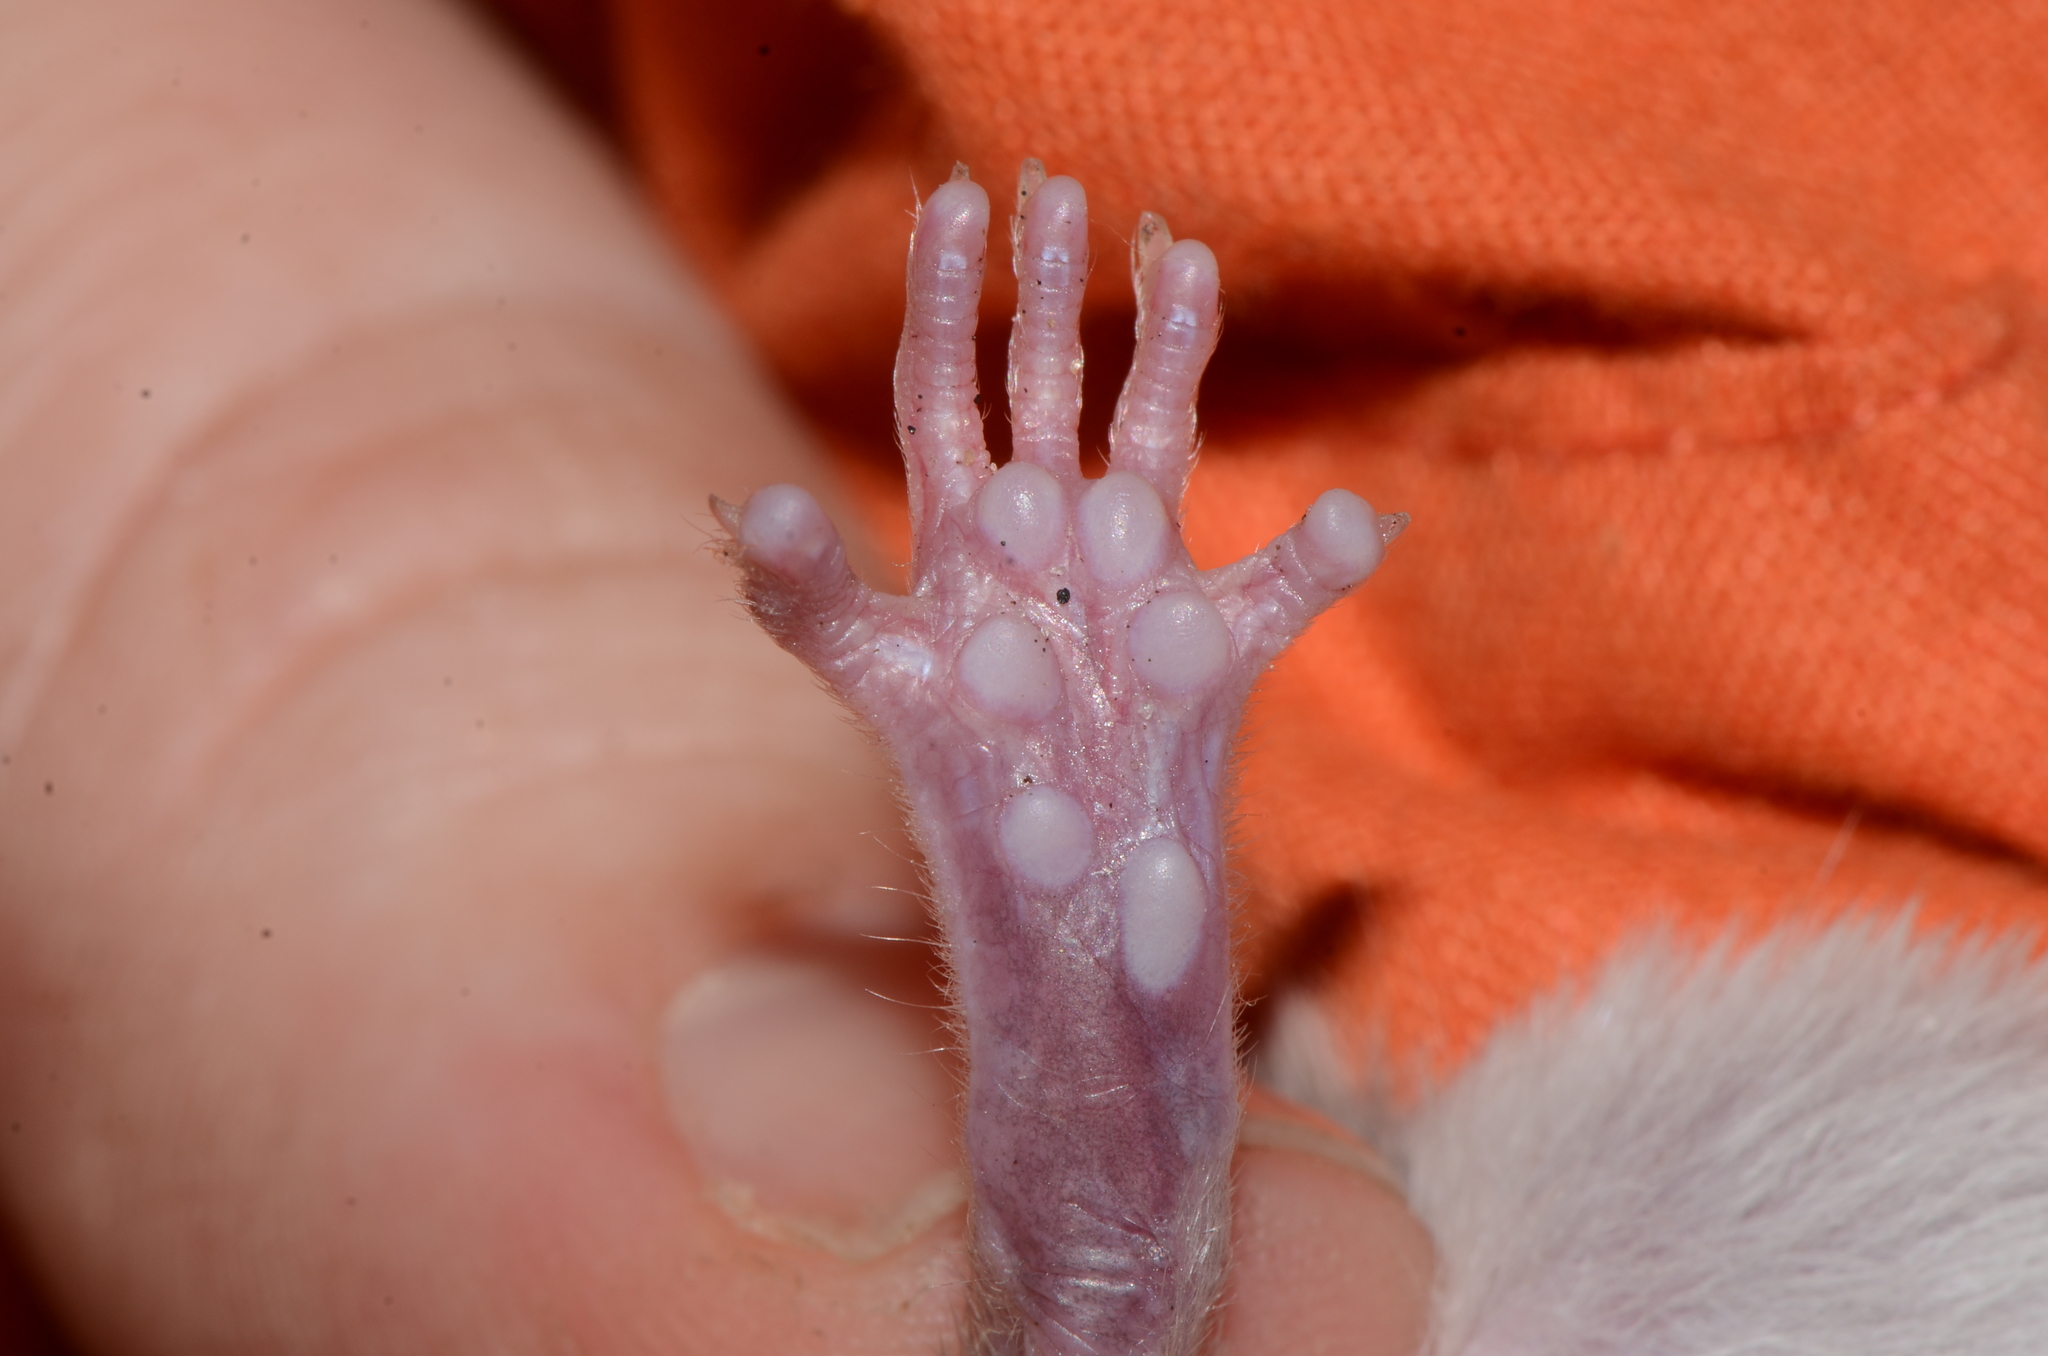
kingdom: Animalia
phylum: Chordata
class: Mammalia
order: Rodentia
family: Nesomyidae
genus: Beamys
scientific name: Beamys hindei
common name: Lesser hamster-rat, long-tailed pouched rat
